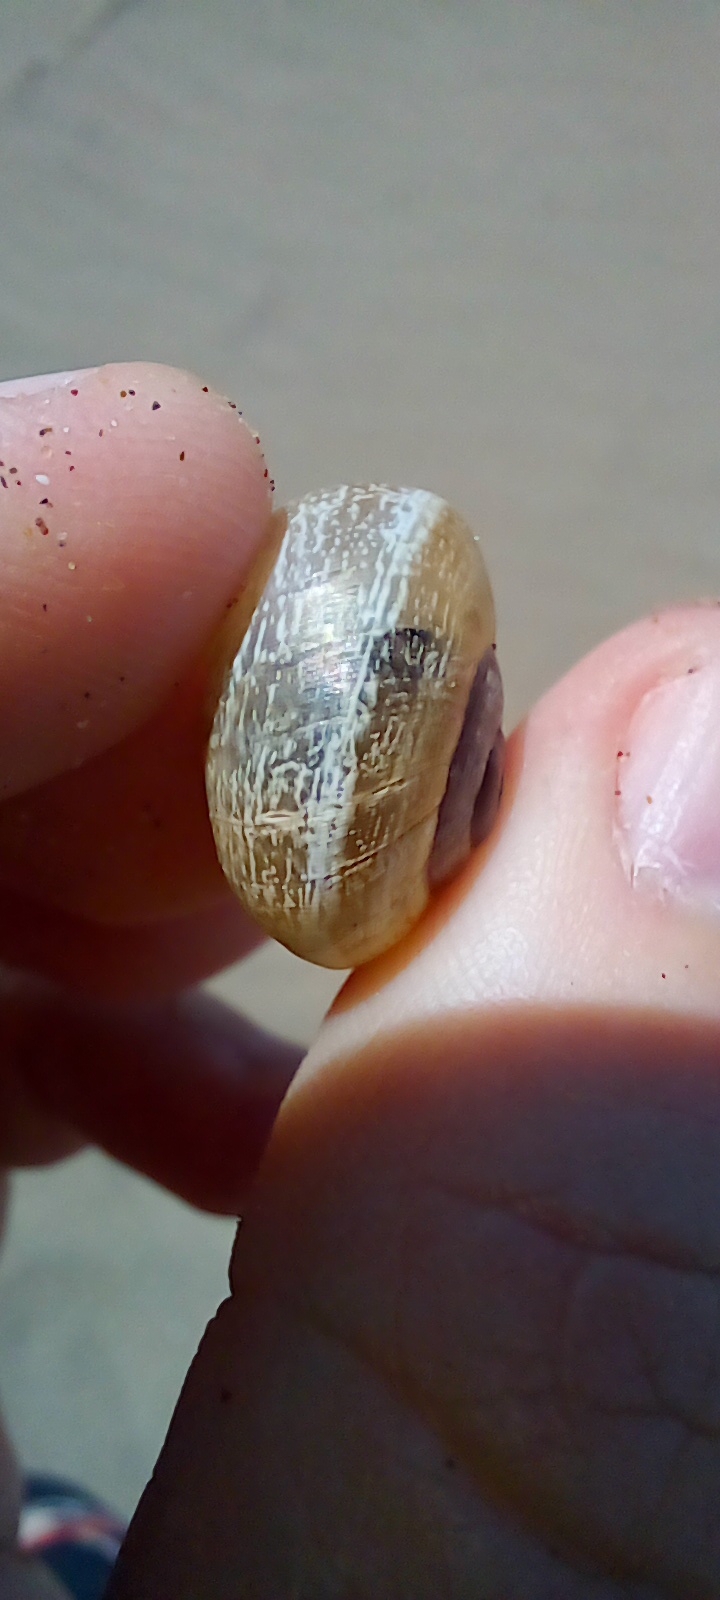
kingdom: Animalia
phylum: Mollusca
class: Gastropoda
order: Stylommatophora
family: Helicidae
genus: Otala
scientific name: Otala punctata
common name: Milk snail
